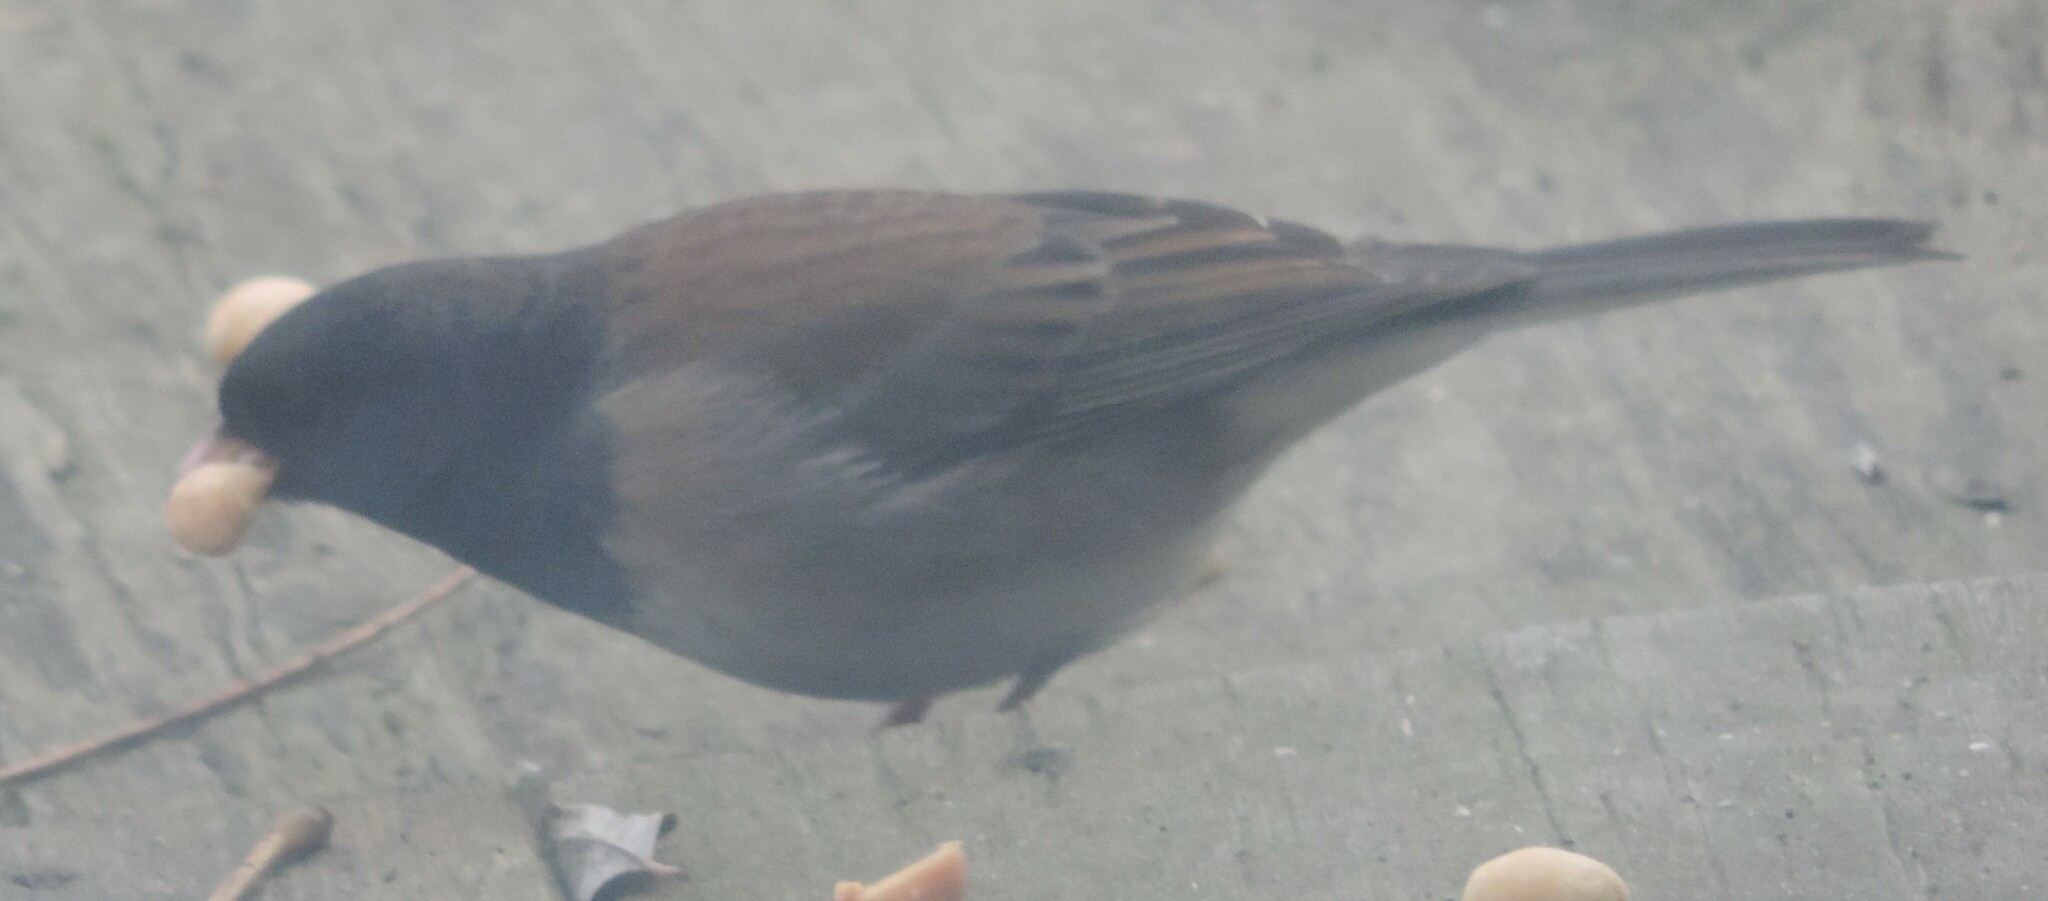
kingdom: Animalia
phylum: Chordata
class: Aves
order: Passeriformes
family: Passerellidae
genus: Junco
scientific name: Junco hyemalis
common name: Dark-eyed junco
